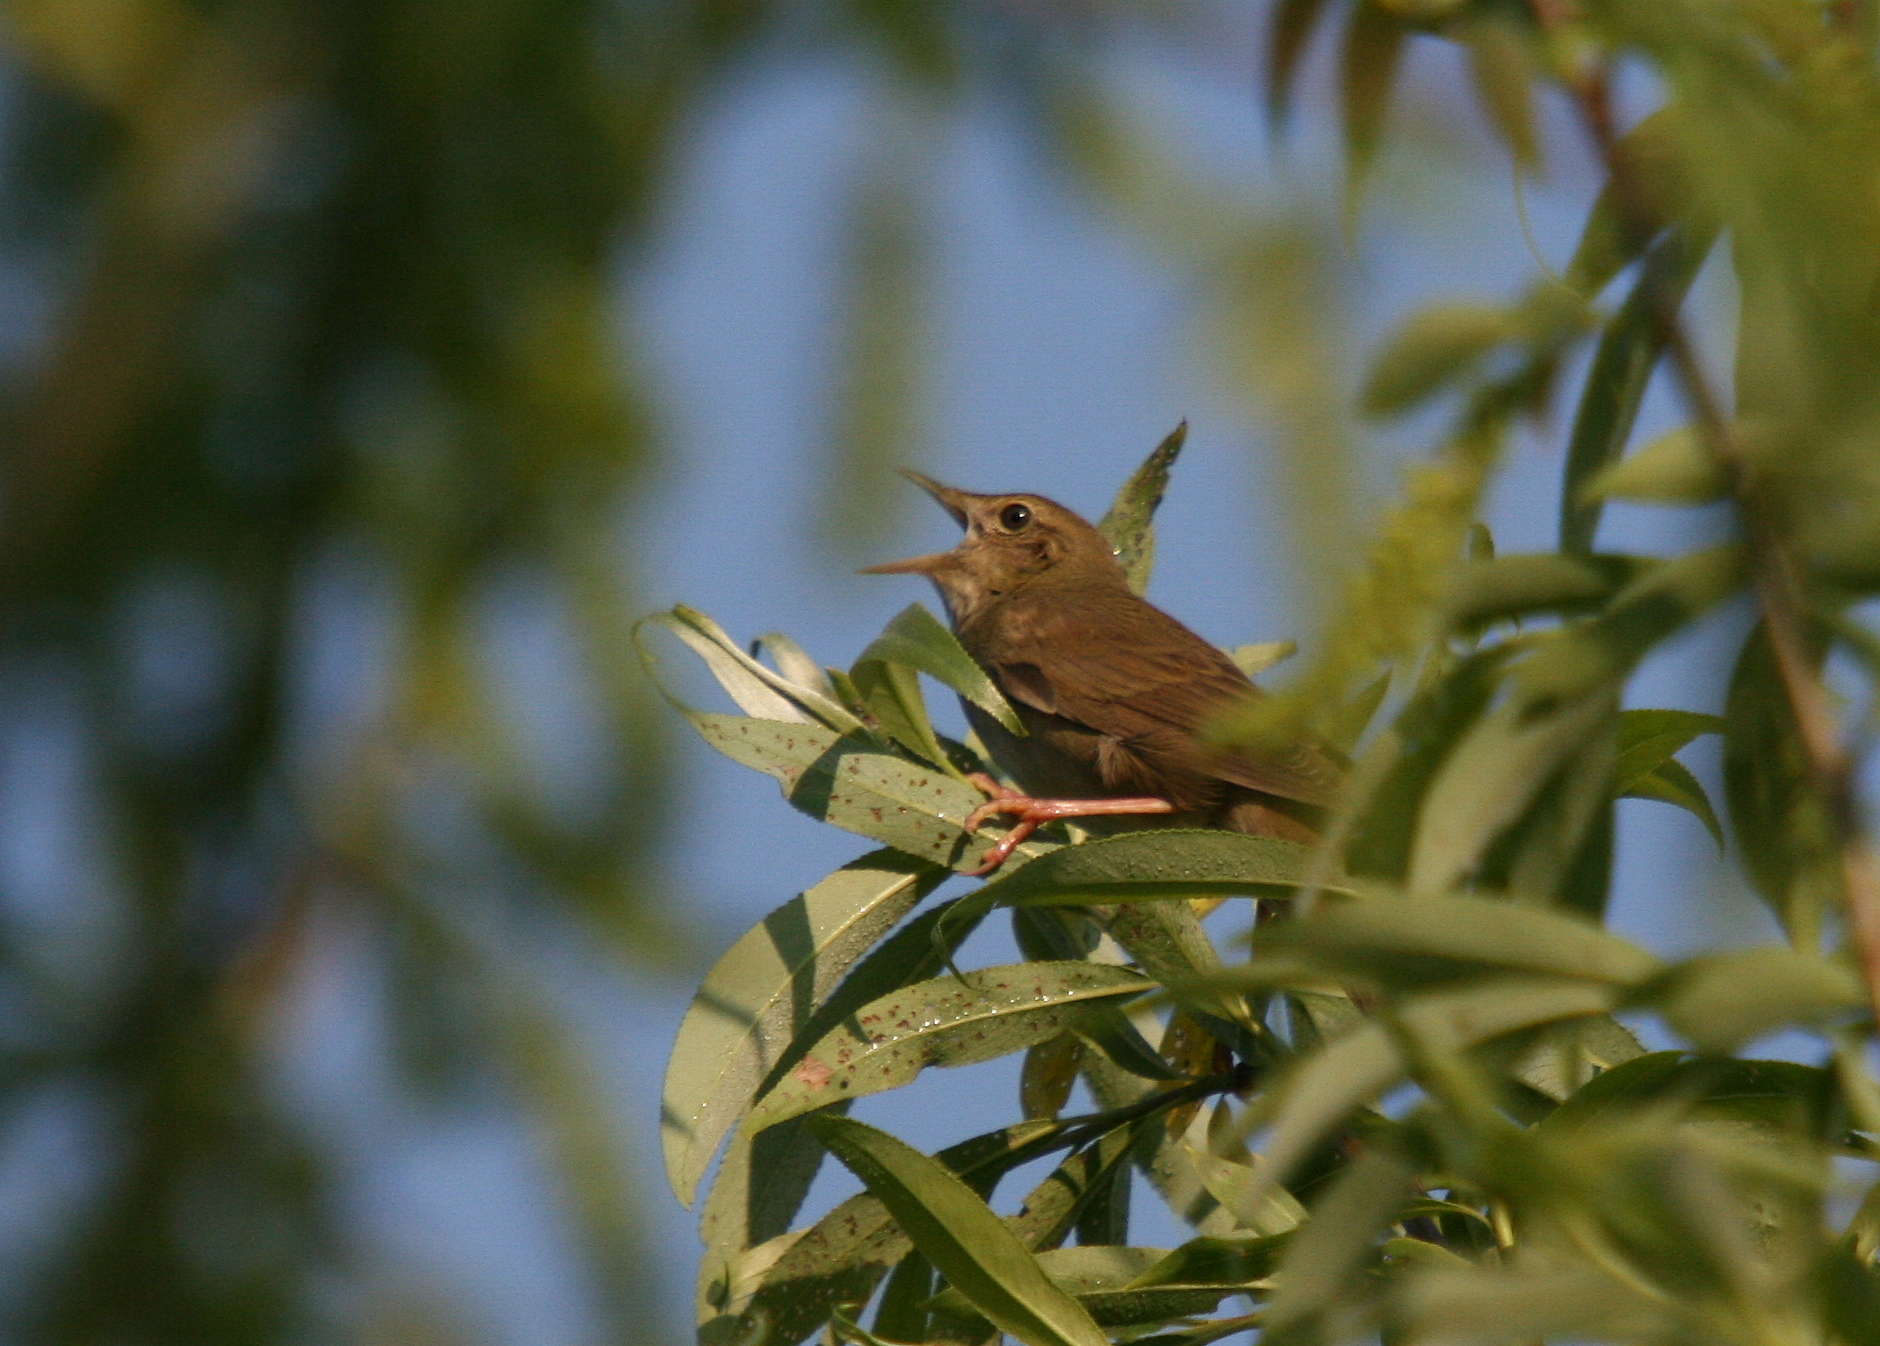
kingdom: Animalia
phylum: Chordata
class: Aves
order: Passeriformes
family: Locustellidae
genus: Locustella
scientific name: Locustella fluviatilis
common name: River warbler
